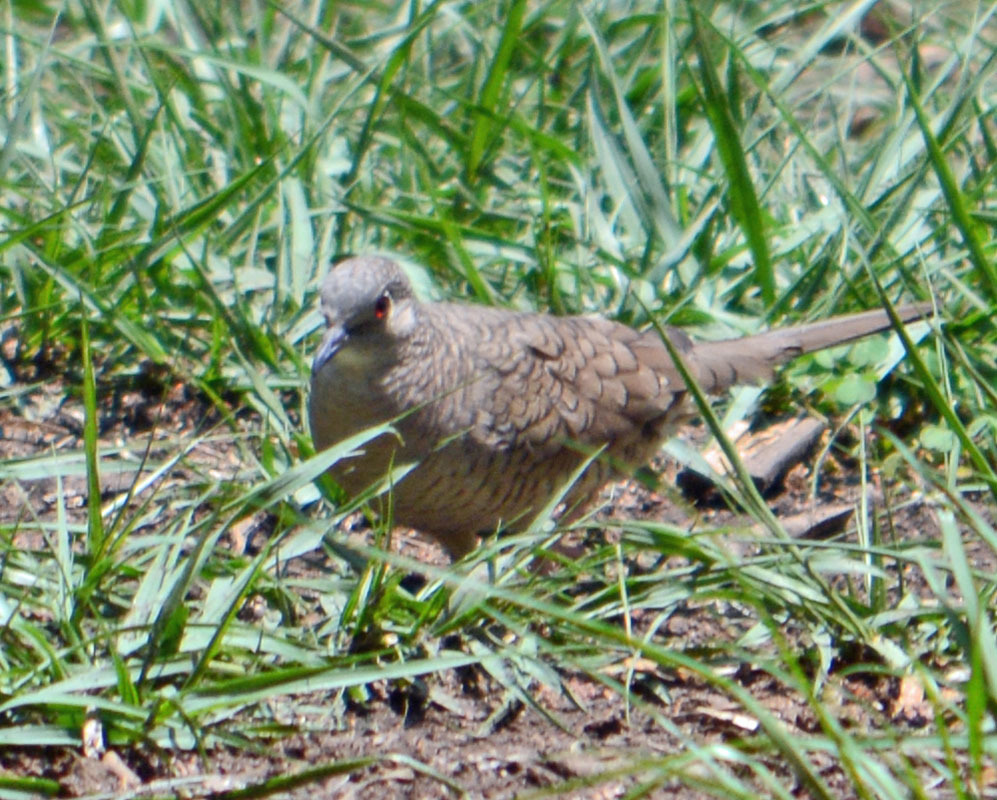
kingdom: Animalia
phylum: Chordata
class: Aves
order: Columbiformes
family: Columbidae
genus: Columbina
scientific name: Columbina inca
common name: Inca dove
